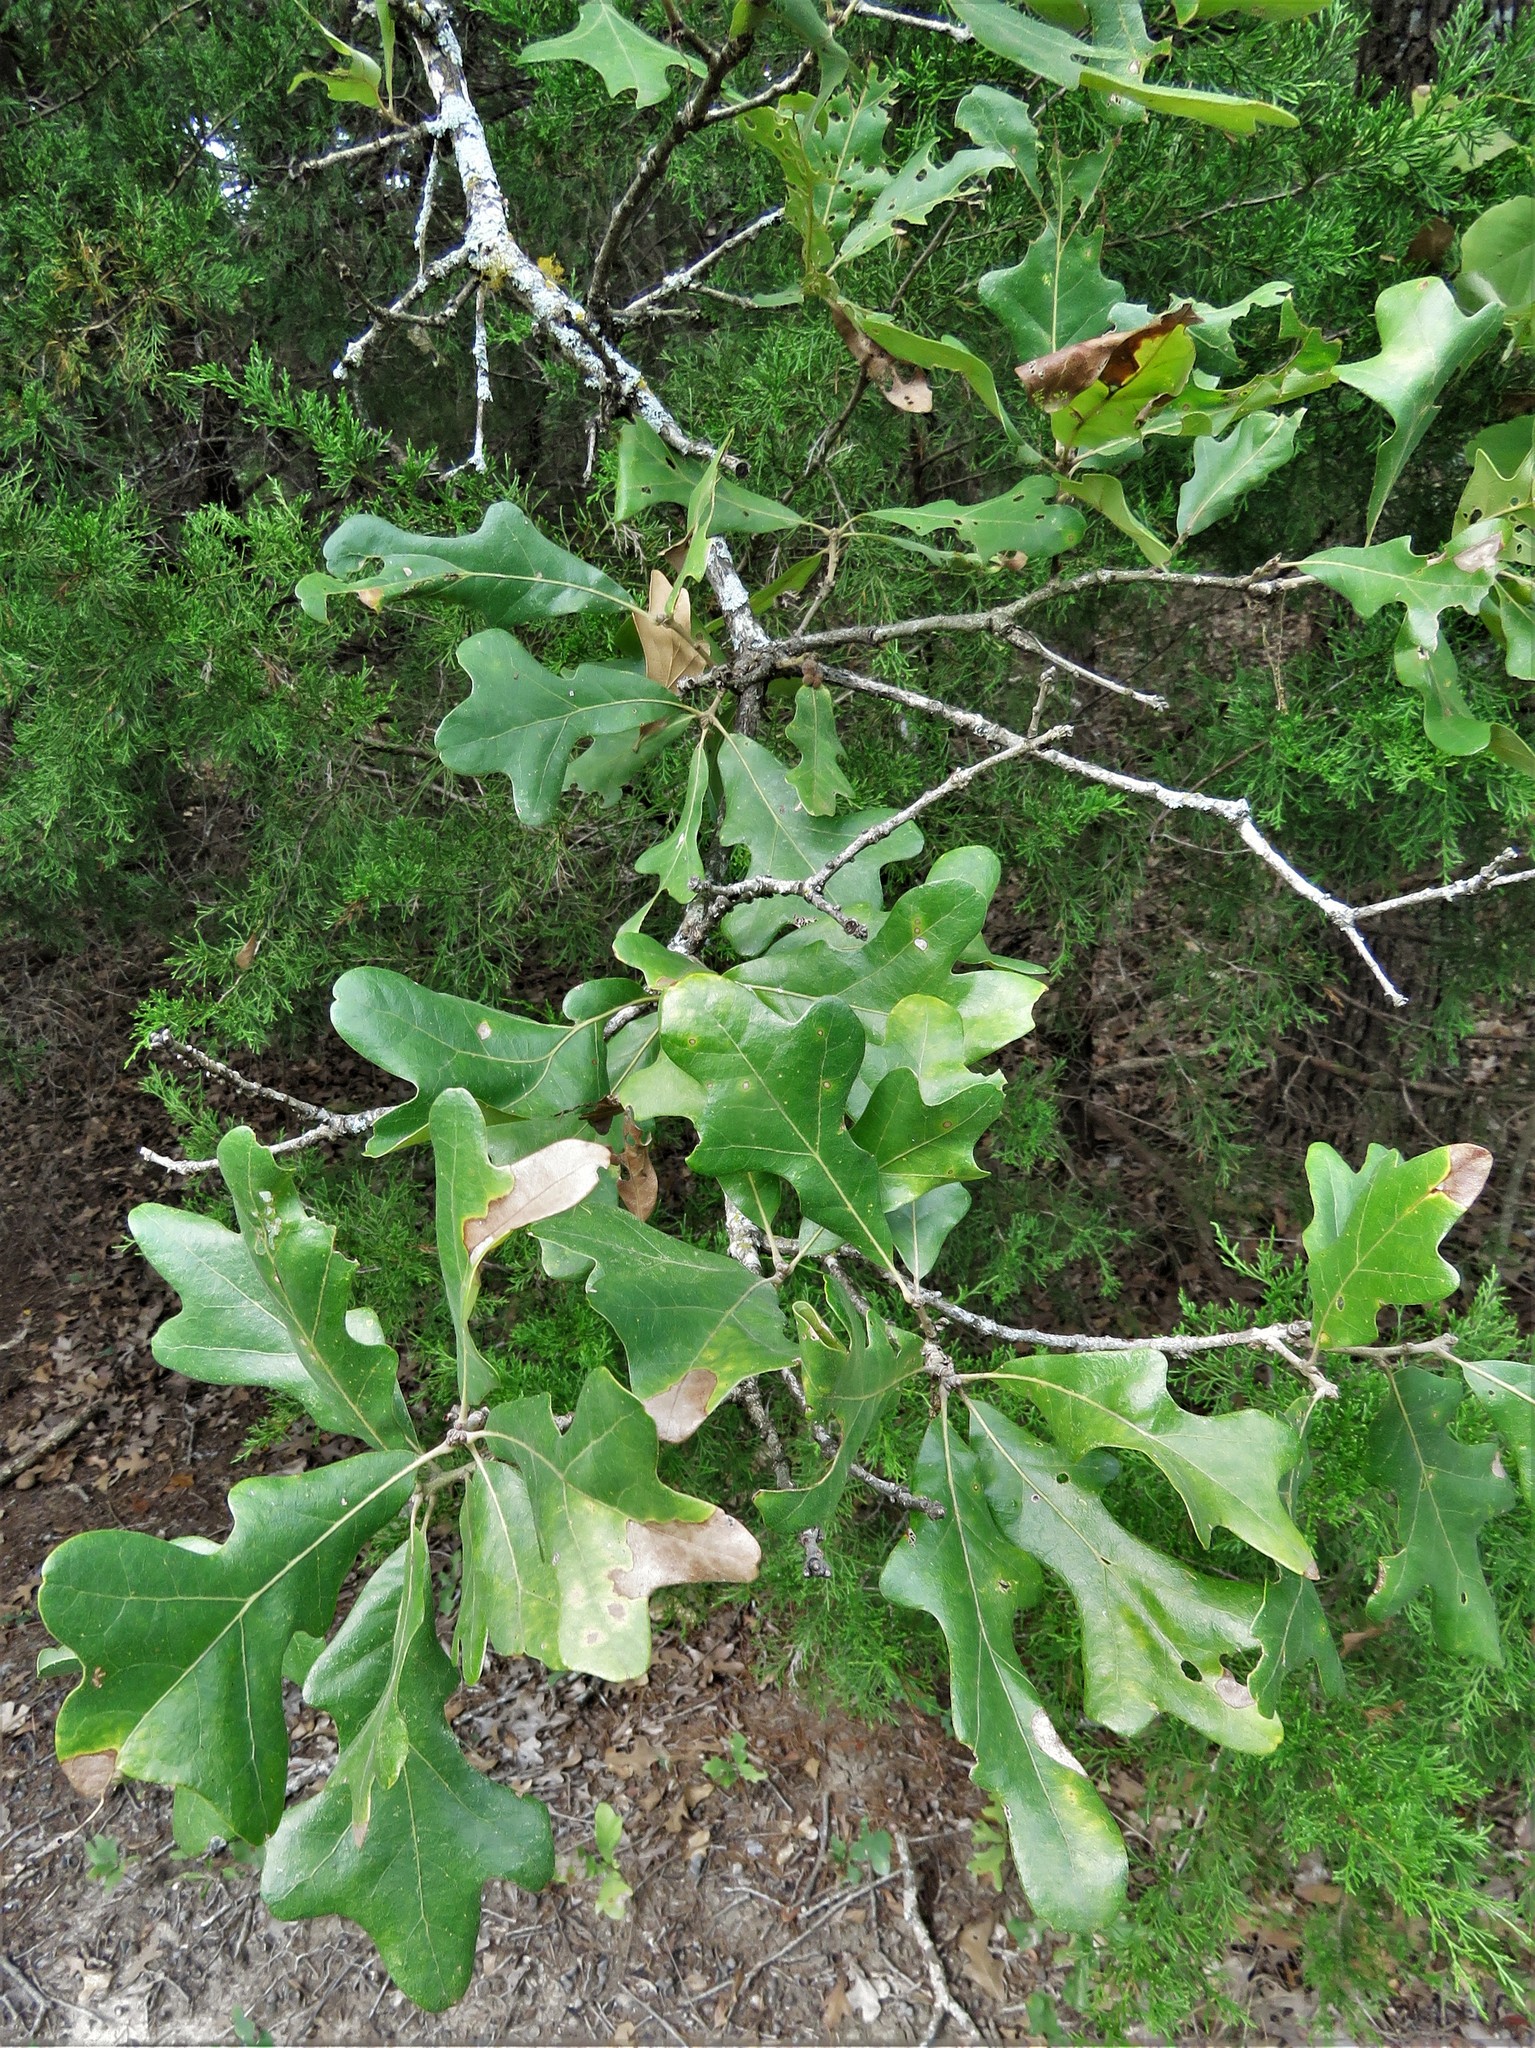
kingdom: Plantae
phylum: Tracheophyta
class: Magnoliopsida
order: Fagales
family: Fagaceae
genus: Quercus
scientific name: Quercus stellata
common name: Post oak
